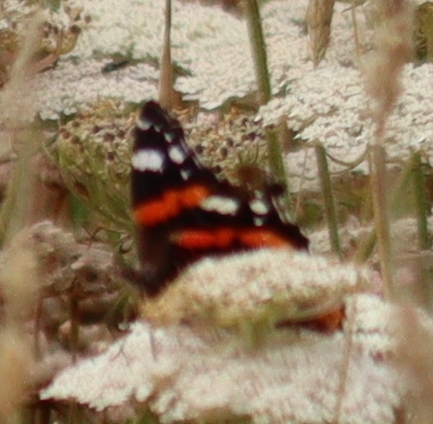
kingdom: Animalia
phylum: Arthropoda
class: Insecta
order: Lepidoptera
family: Nymphalidae
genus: Vanessa
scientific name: Vanessa atalanta
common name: Red admiral
